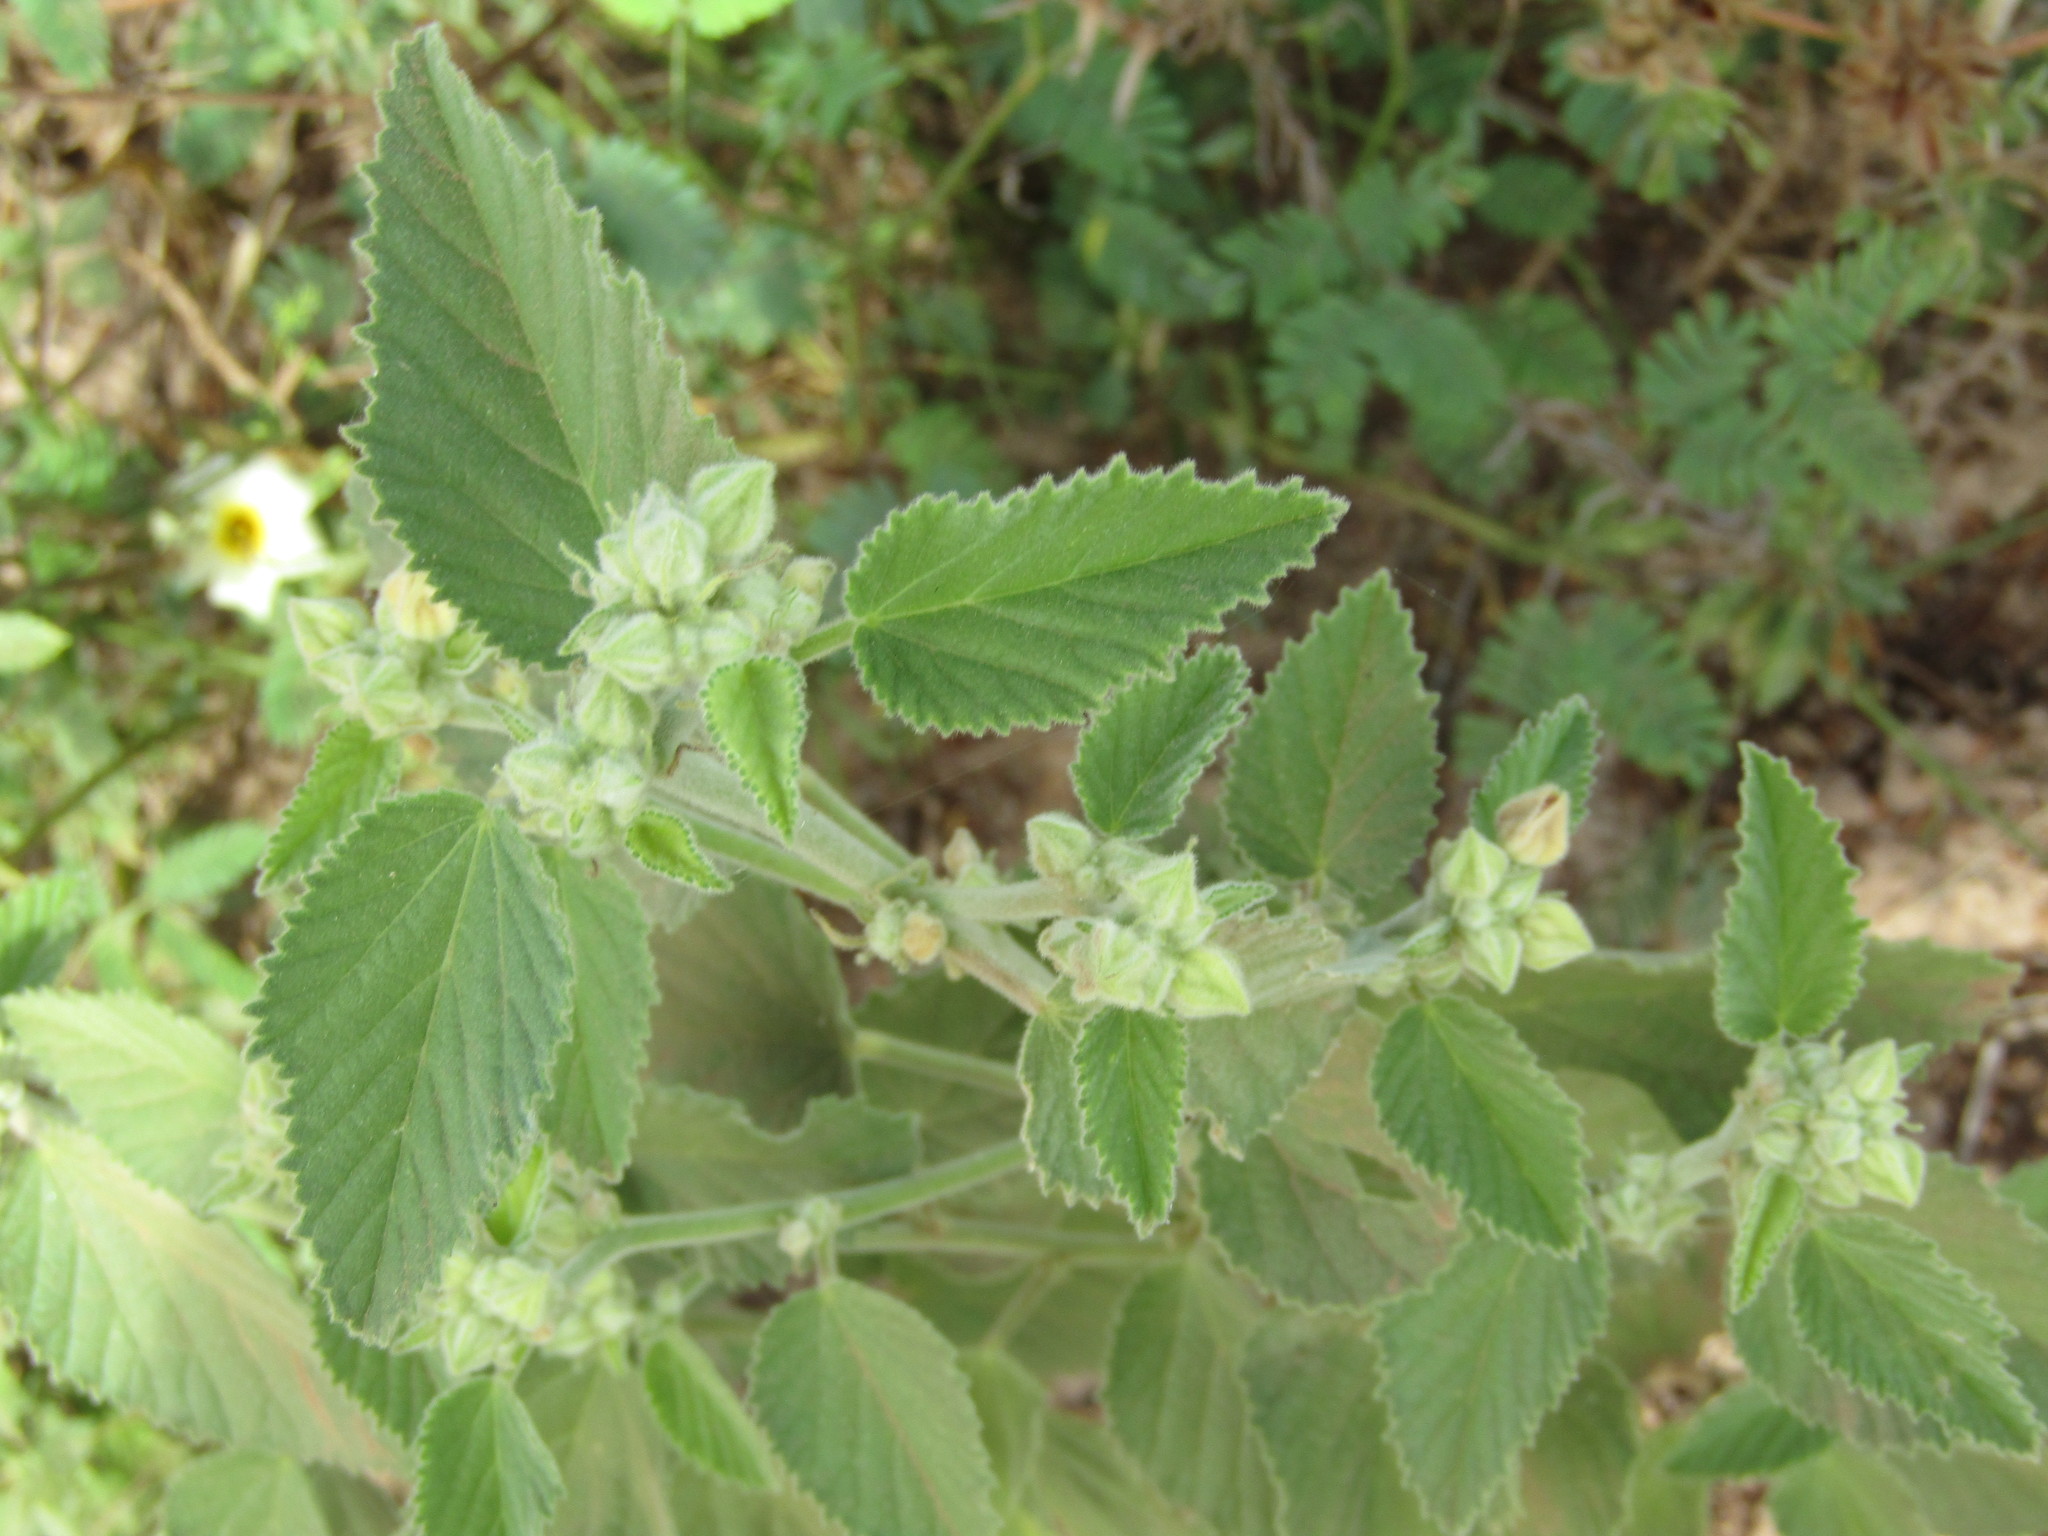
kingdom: Plantae
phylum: Tracheophyta
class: Magnoliopsida
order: Malvales
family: Malvaceae
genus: Sida
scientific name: Sida cordifolia
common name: Ilima
